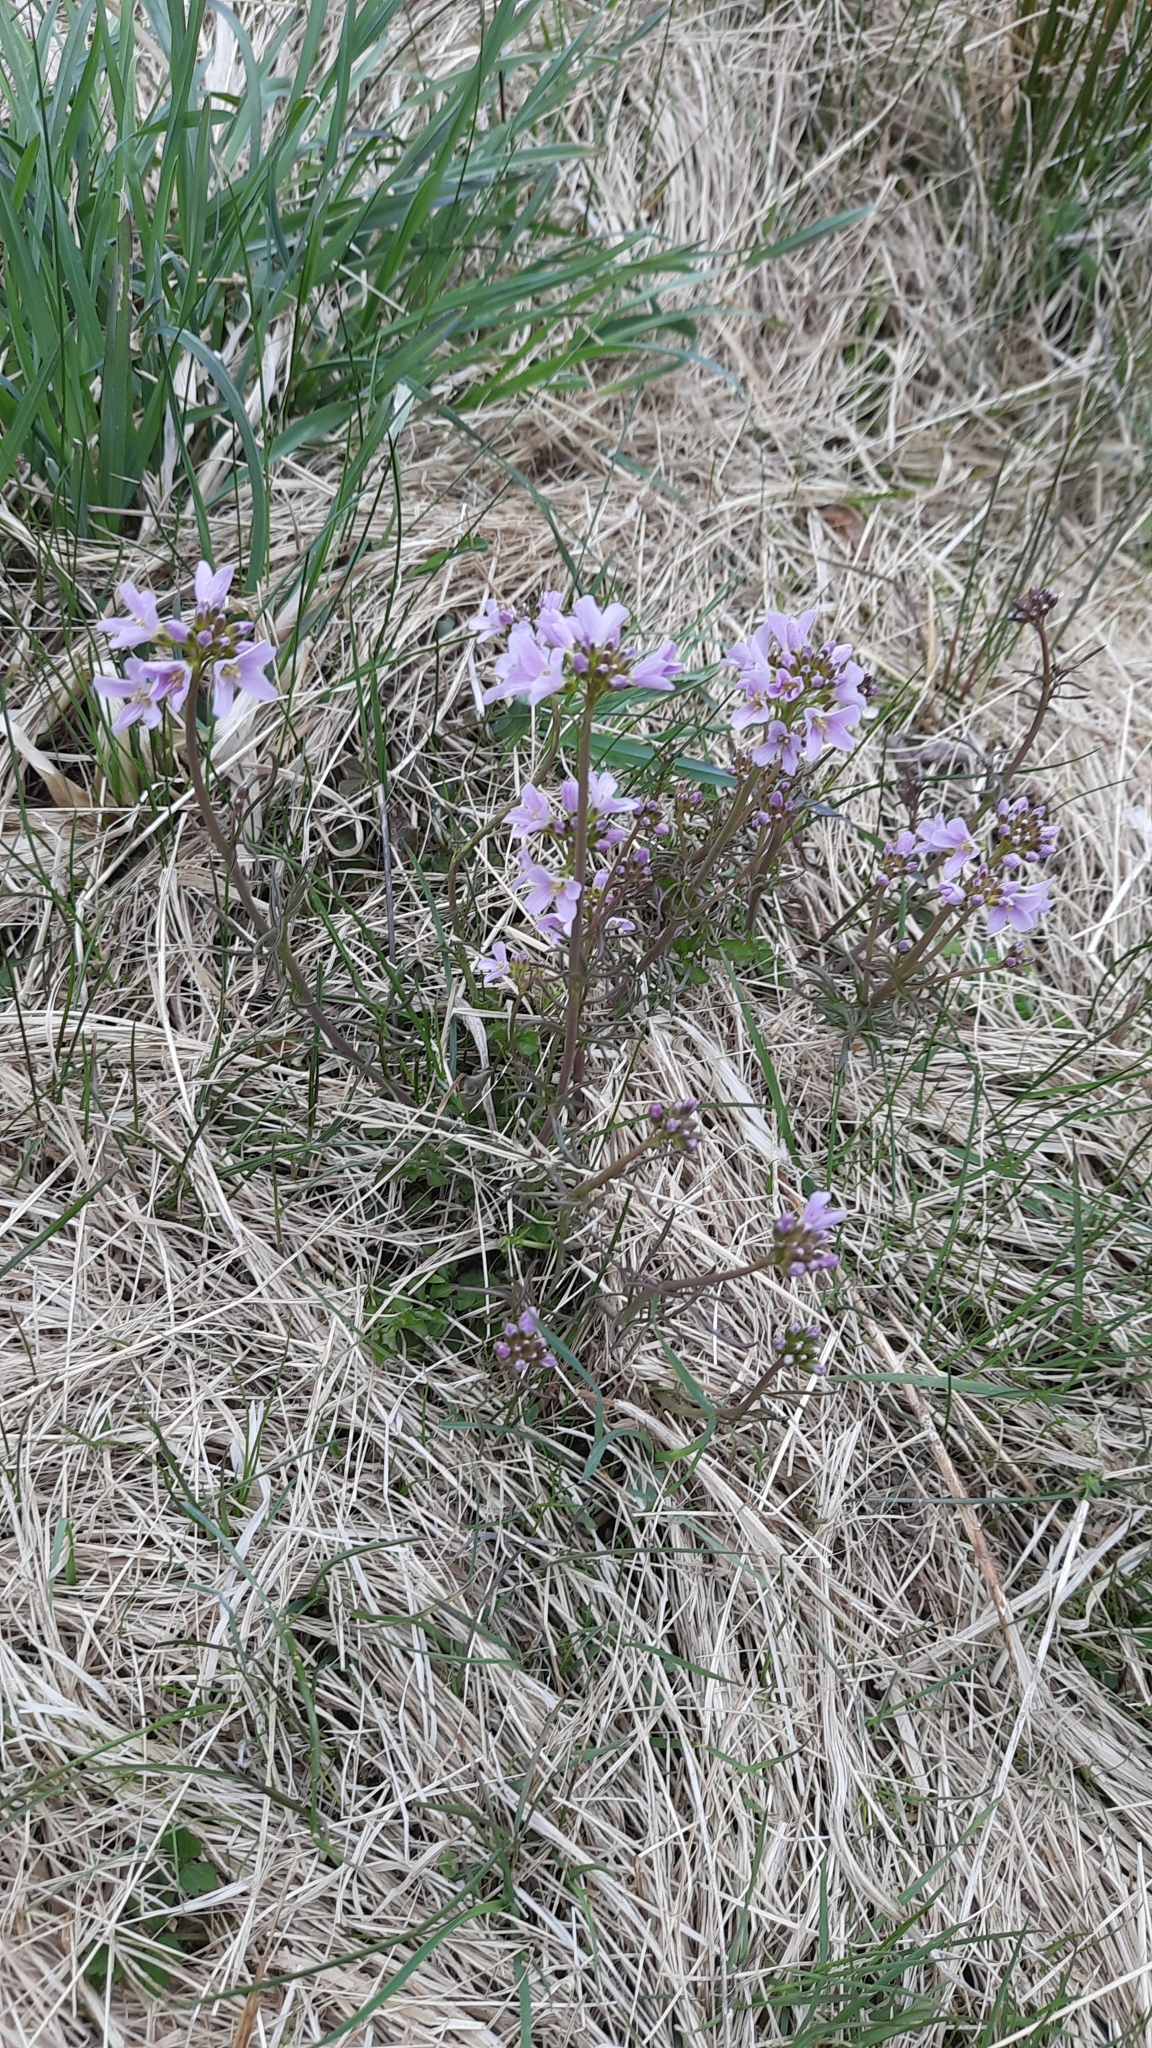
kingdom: Plantae
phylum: Tracheophyta
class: Magnoliopsida
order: Brassicales
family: Brassicaceae
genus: Cardamine
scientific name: Cardamine pratensis
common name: Cuckoo flower
